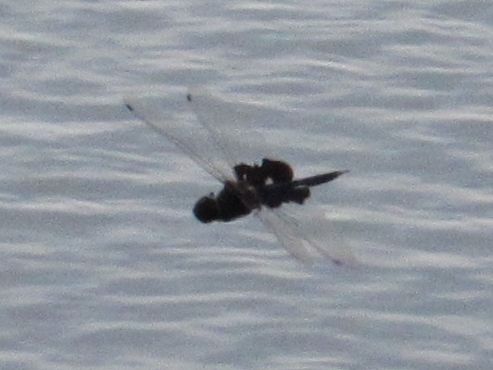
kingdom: Animalia
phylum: Arthropoda
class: Insecta
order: Odonata
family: Libellulidae
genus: Tramea
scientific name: Tramea lacerata
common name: Black saddlebags
